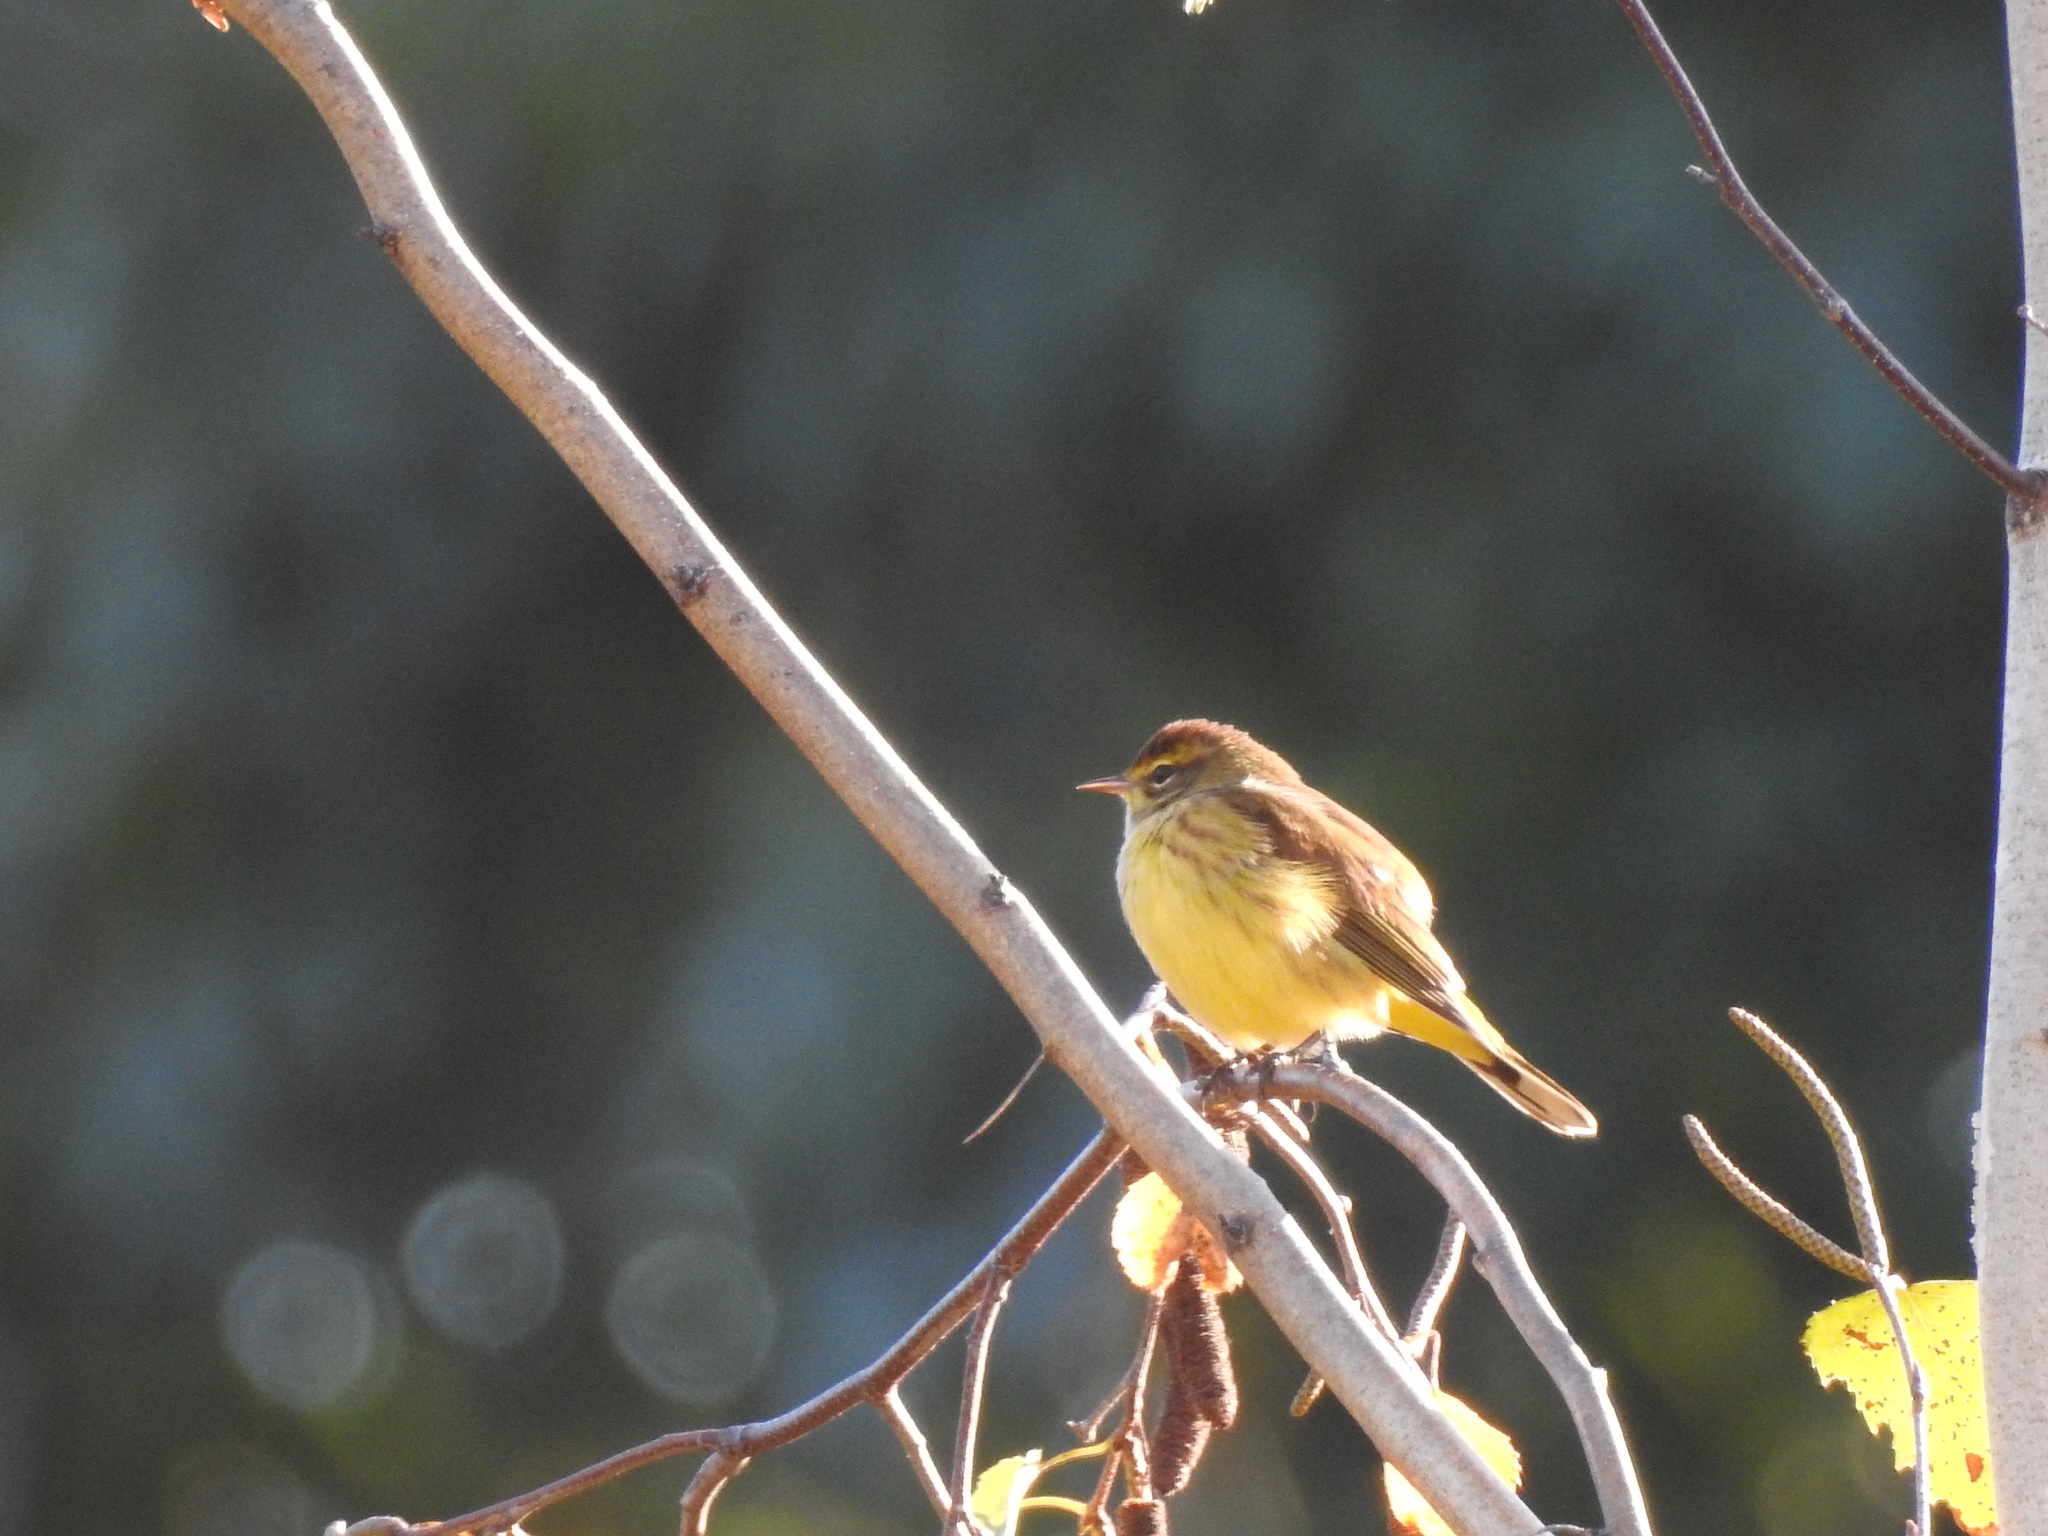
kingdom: Animalia
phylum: Chordata
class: Aves
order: Passeriformes
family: Parulidae
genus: Setophaga
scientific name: Setophaga palmarum
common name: Palm warbler
